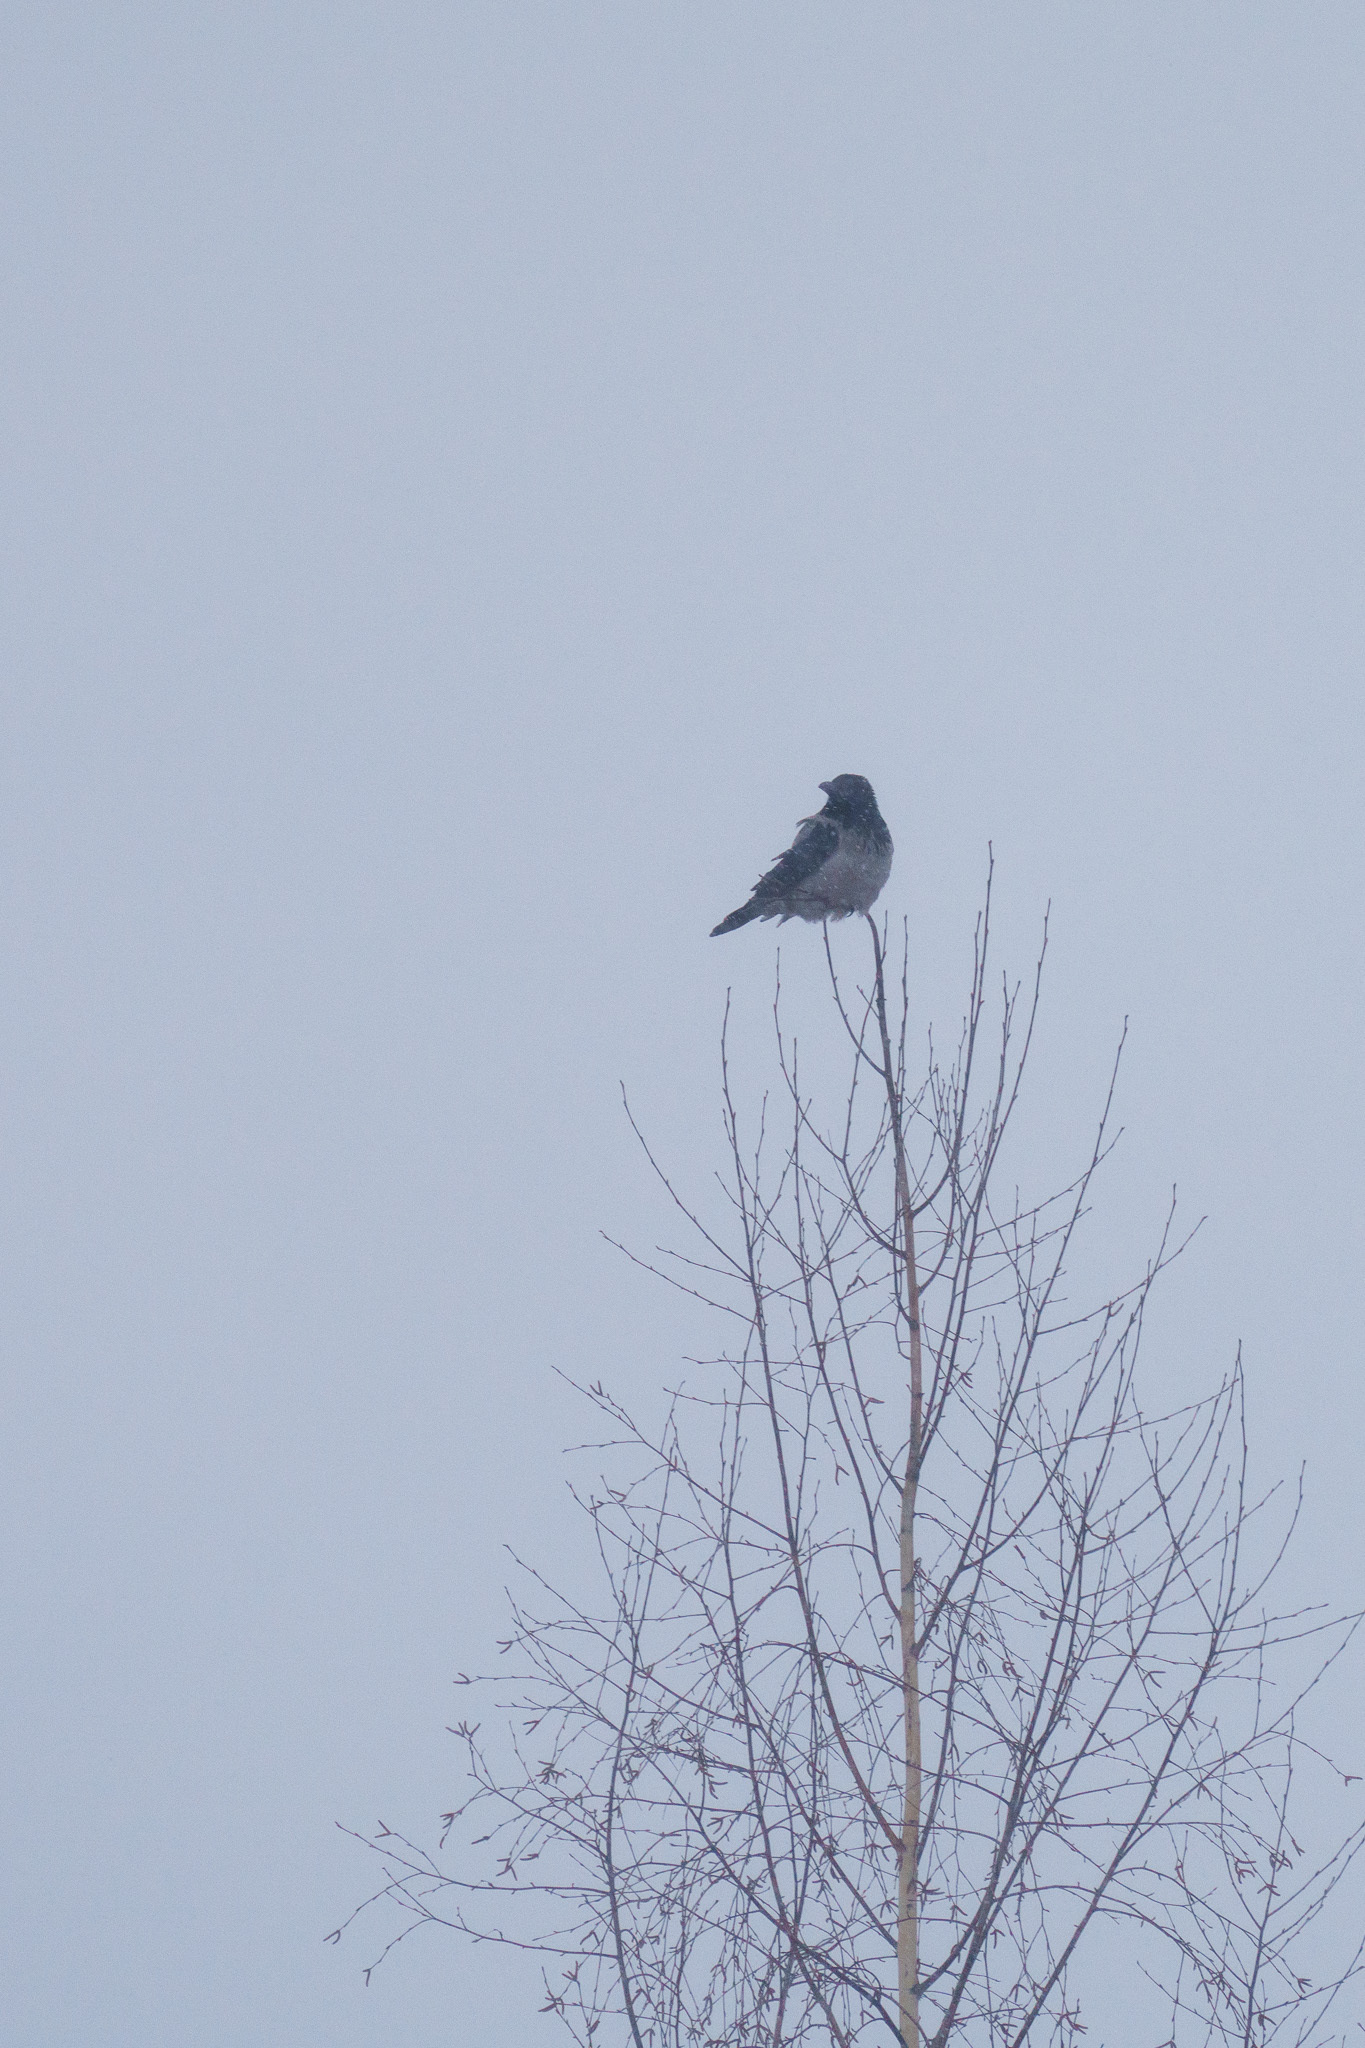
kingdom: Animalia
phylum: Chordata
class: Aves
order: Passeriformes
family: Corvidae
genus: Corvus
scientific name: Corvus cornix
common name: Hooded crow
